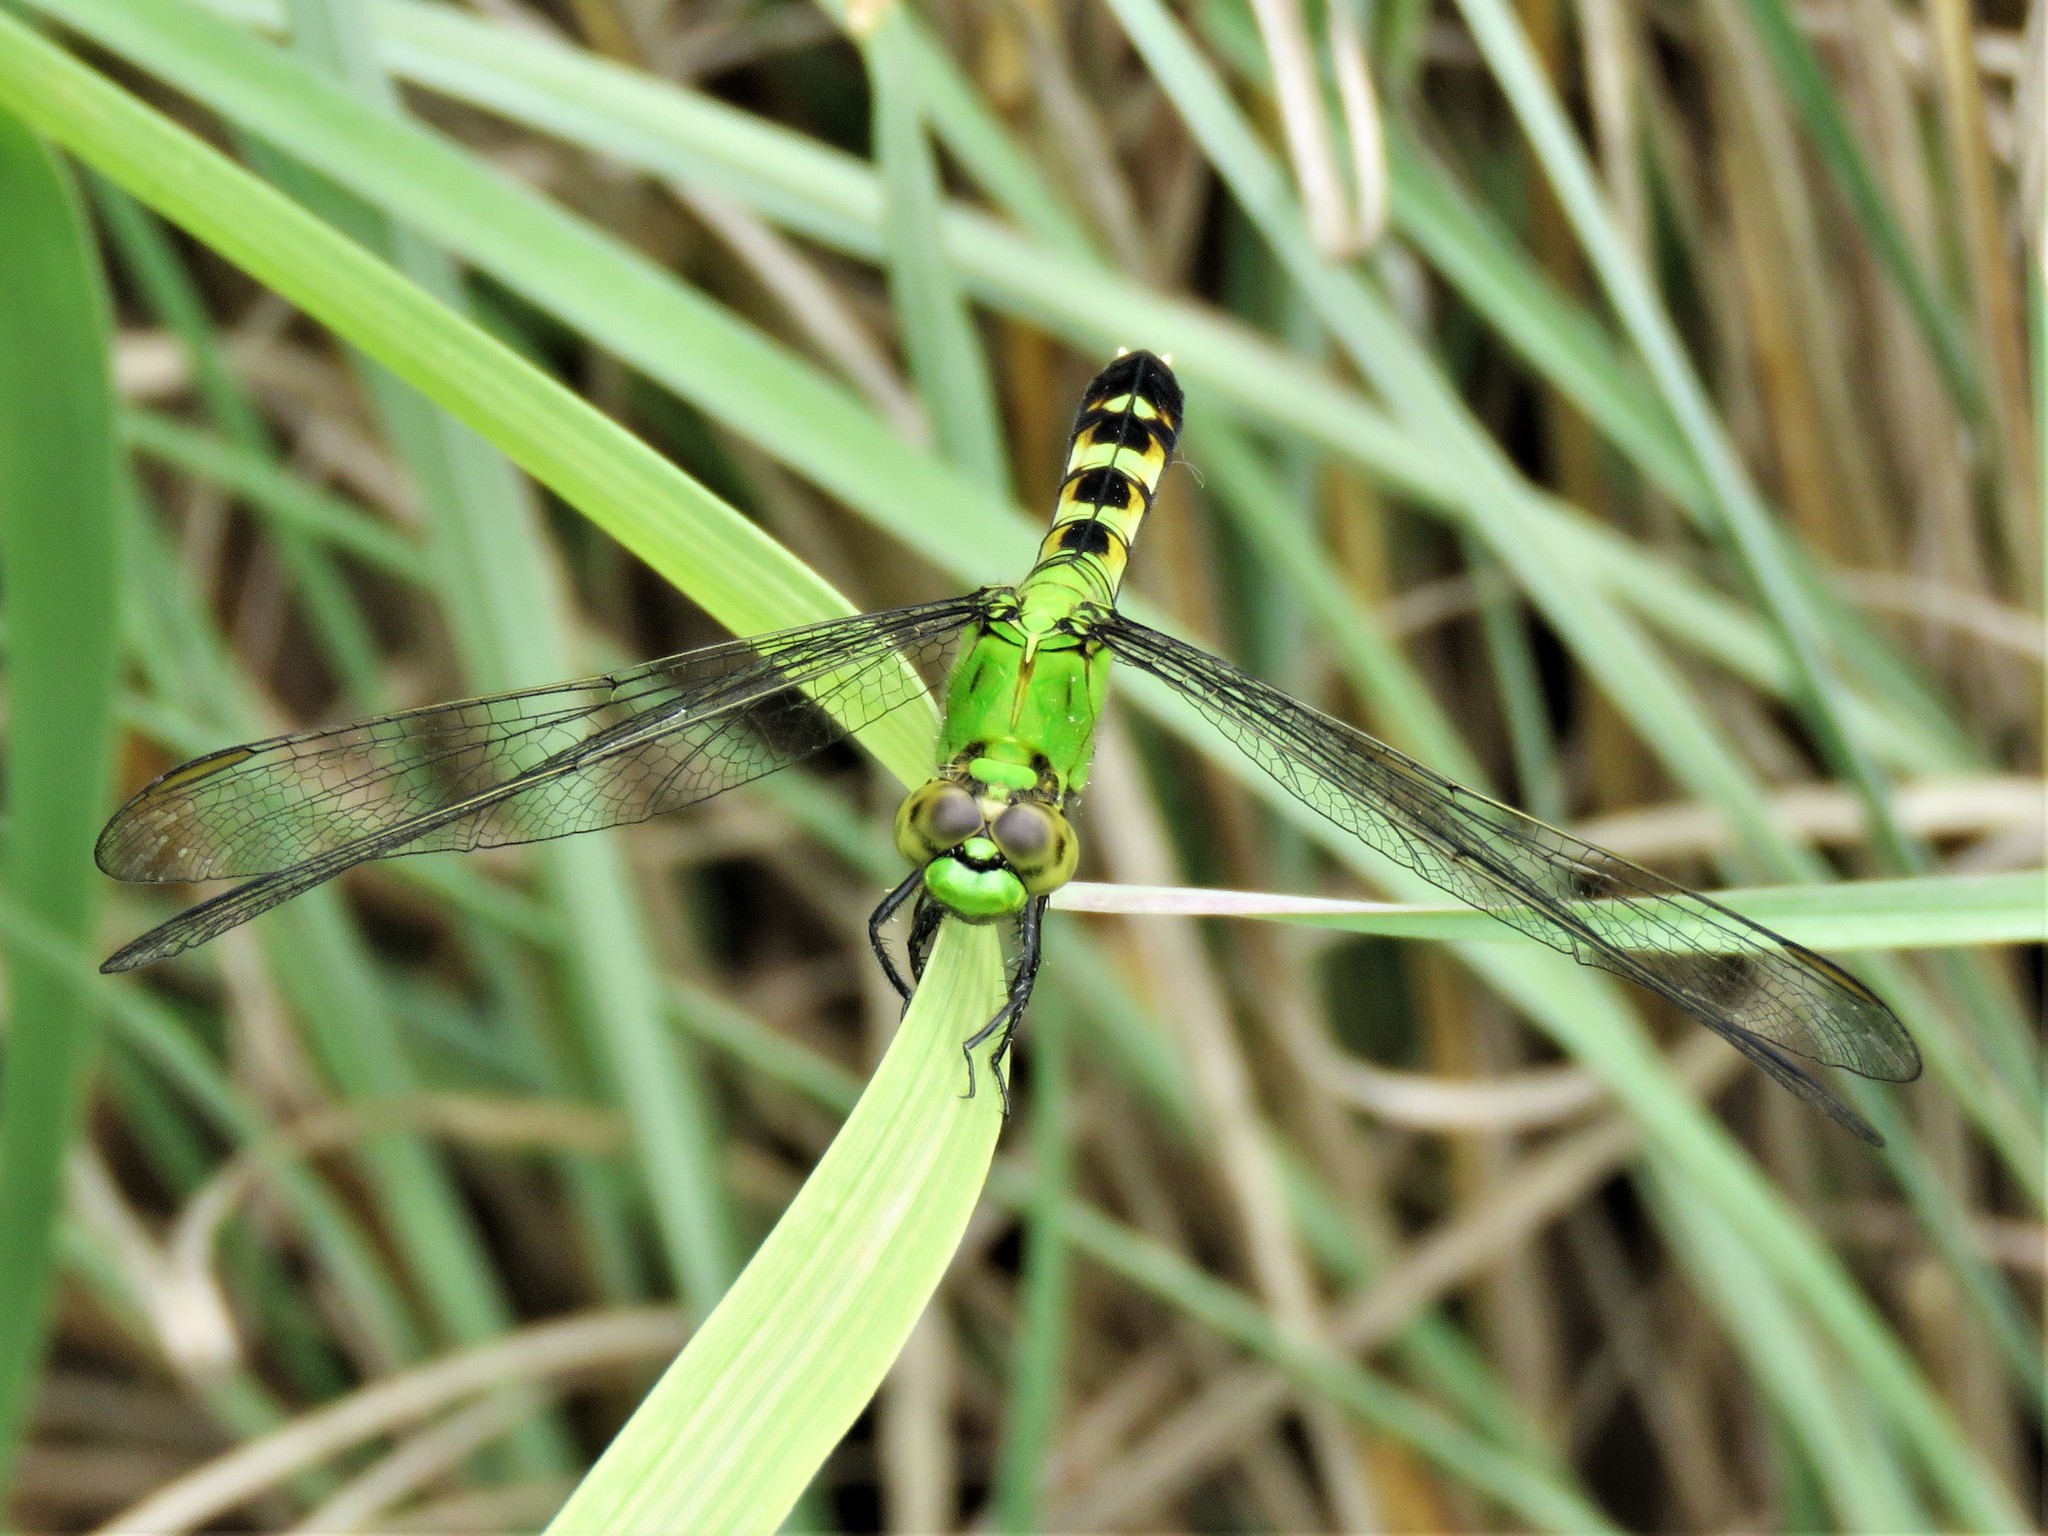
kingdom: Animalia
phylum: Arthropoda
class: Insecta
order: Odonata
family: Libellulidae
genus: Erythemis
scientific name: Erythemis simplicicollis
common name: Eastern pondhawk
